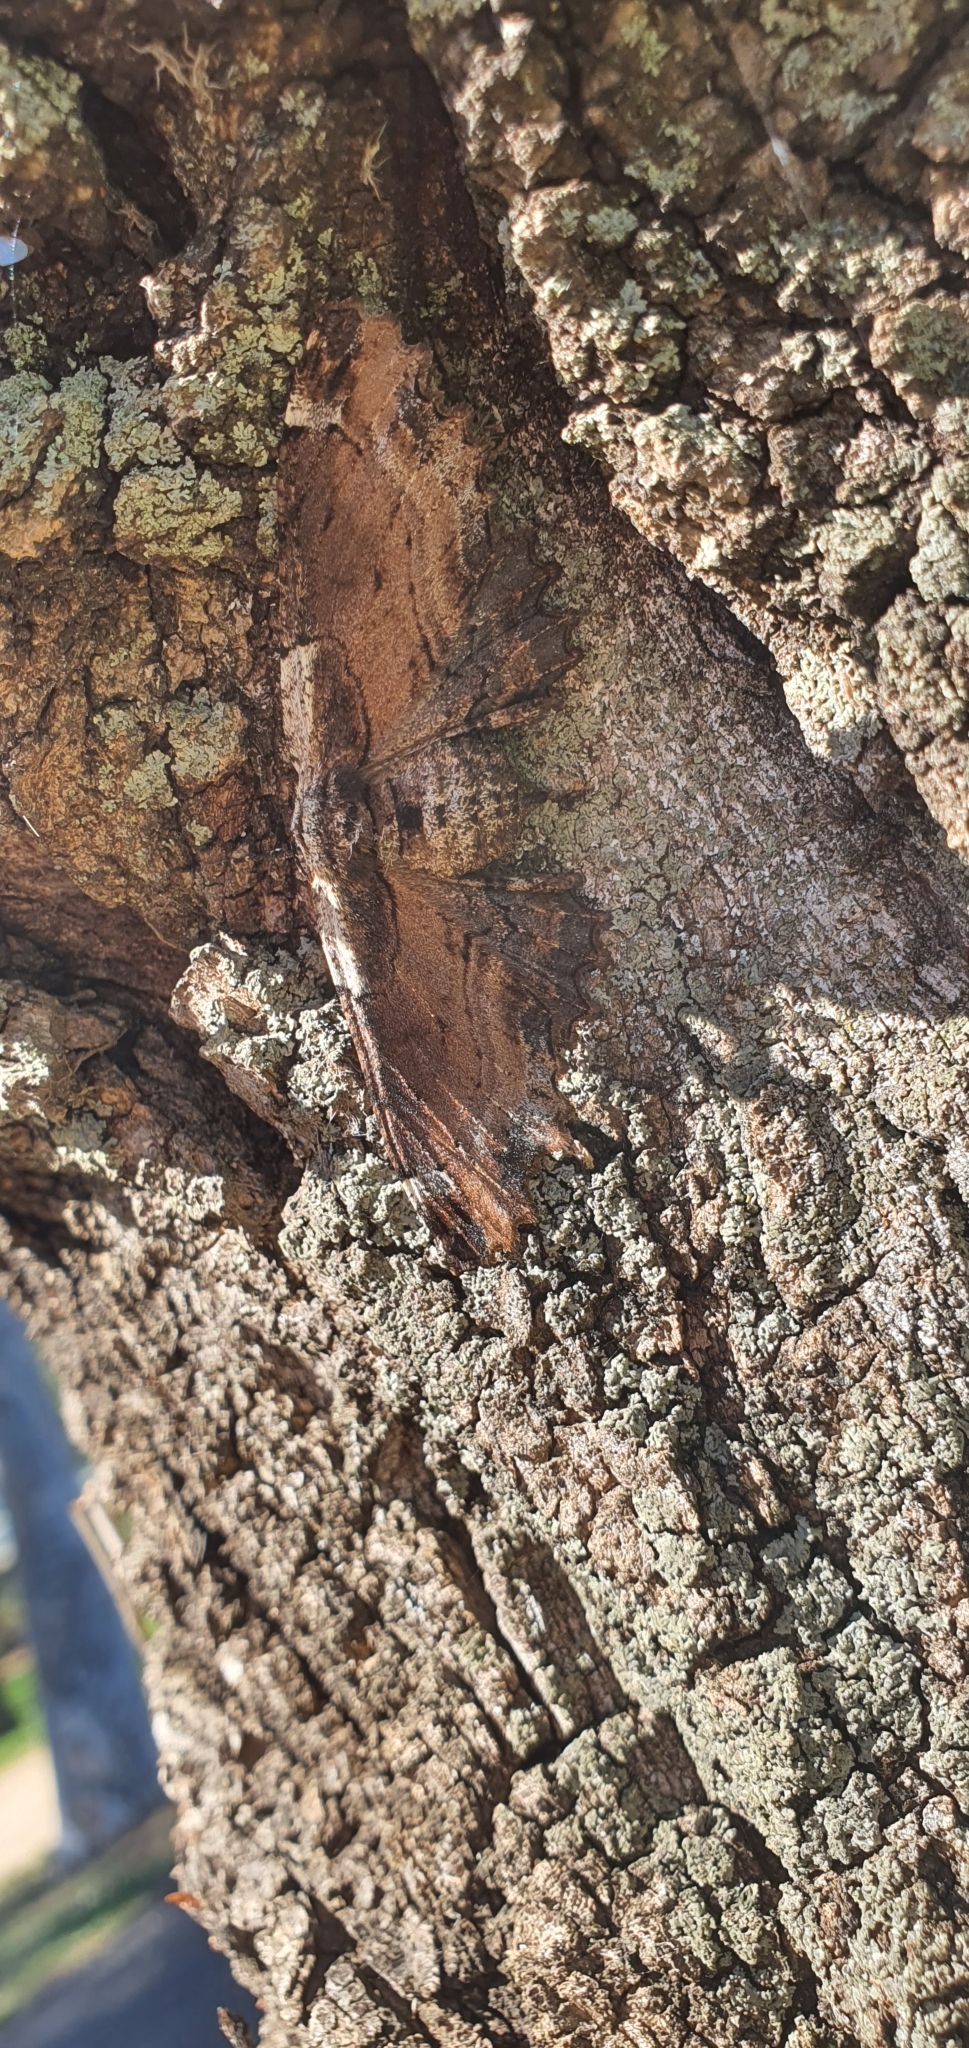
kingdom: Animalia
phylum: Arthropoda
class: Insecta
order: Lepidoptera
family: Geometridae
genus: Pholodes
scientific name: Pholodes sinistraria
